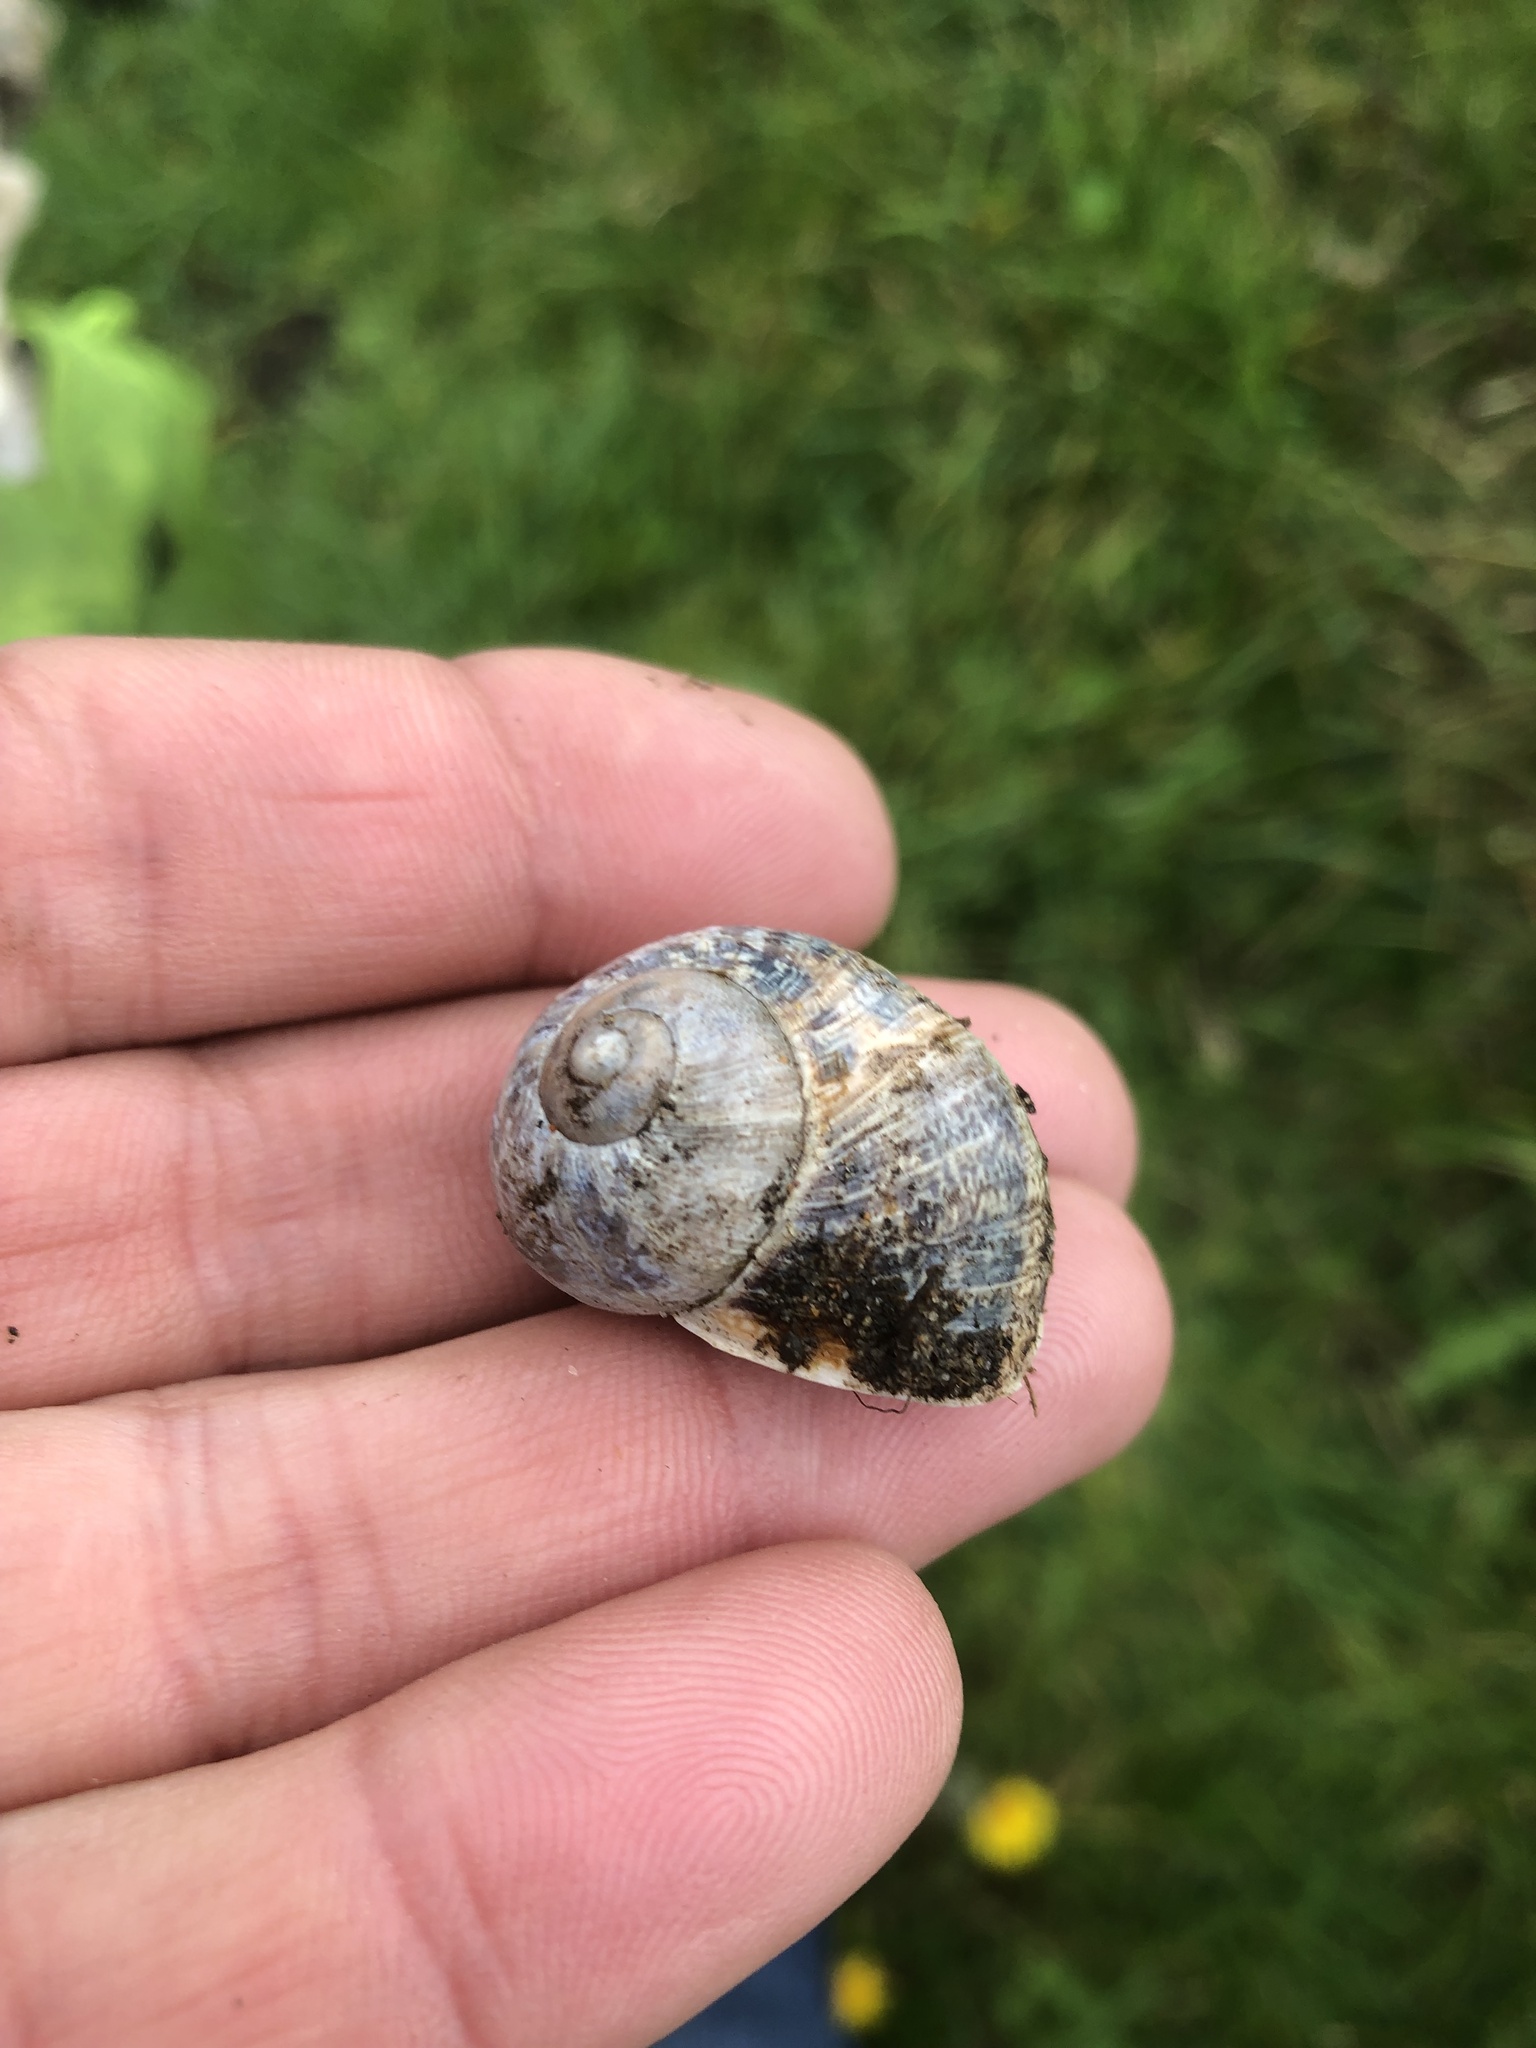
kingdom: Animalia
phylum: Mollusca
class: Gastropoda
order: Stylommatophora
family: Helicidae
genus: Cornu
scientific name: Cornu aspersum
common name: Brown garden snail
